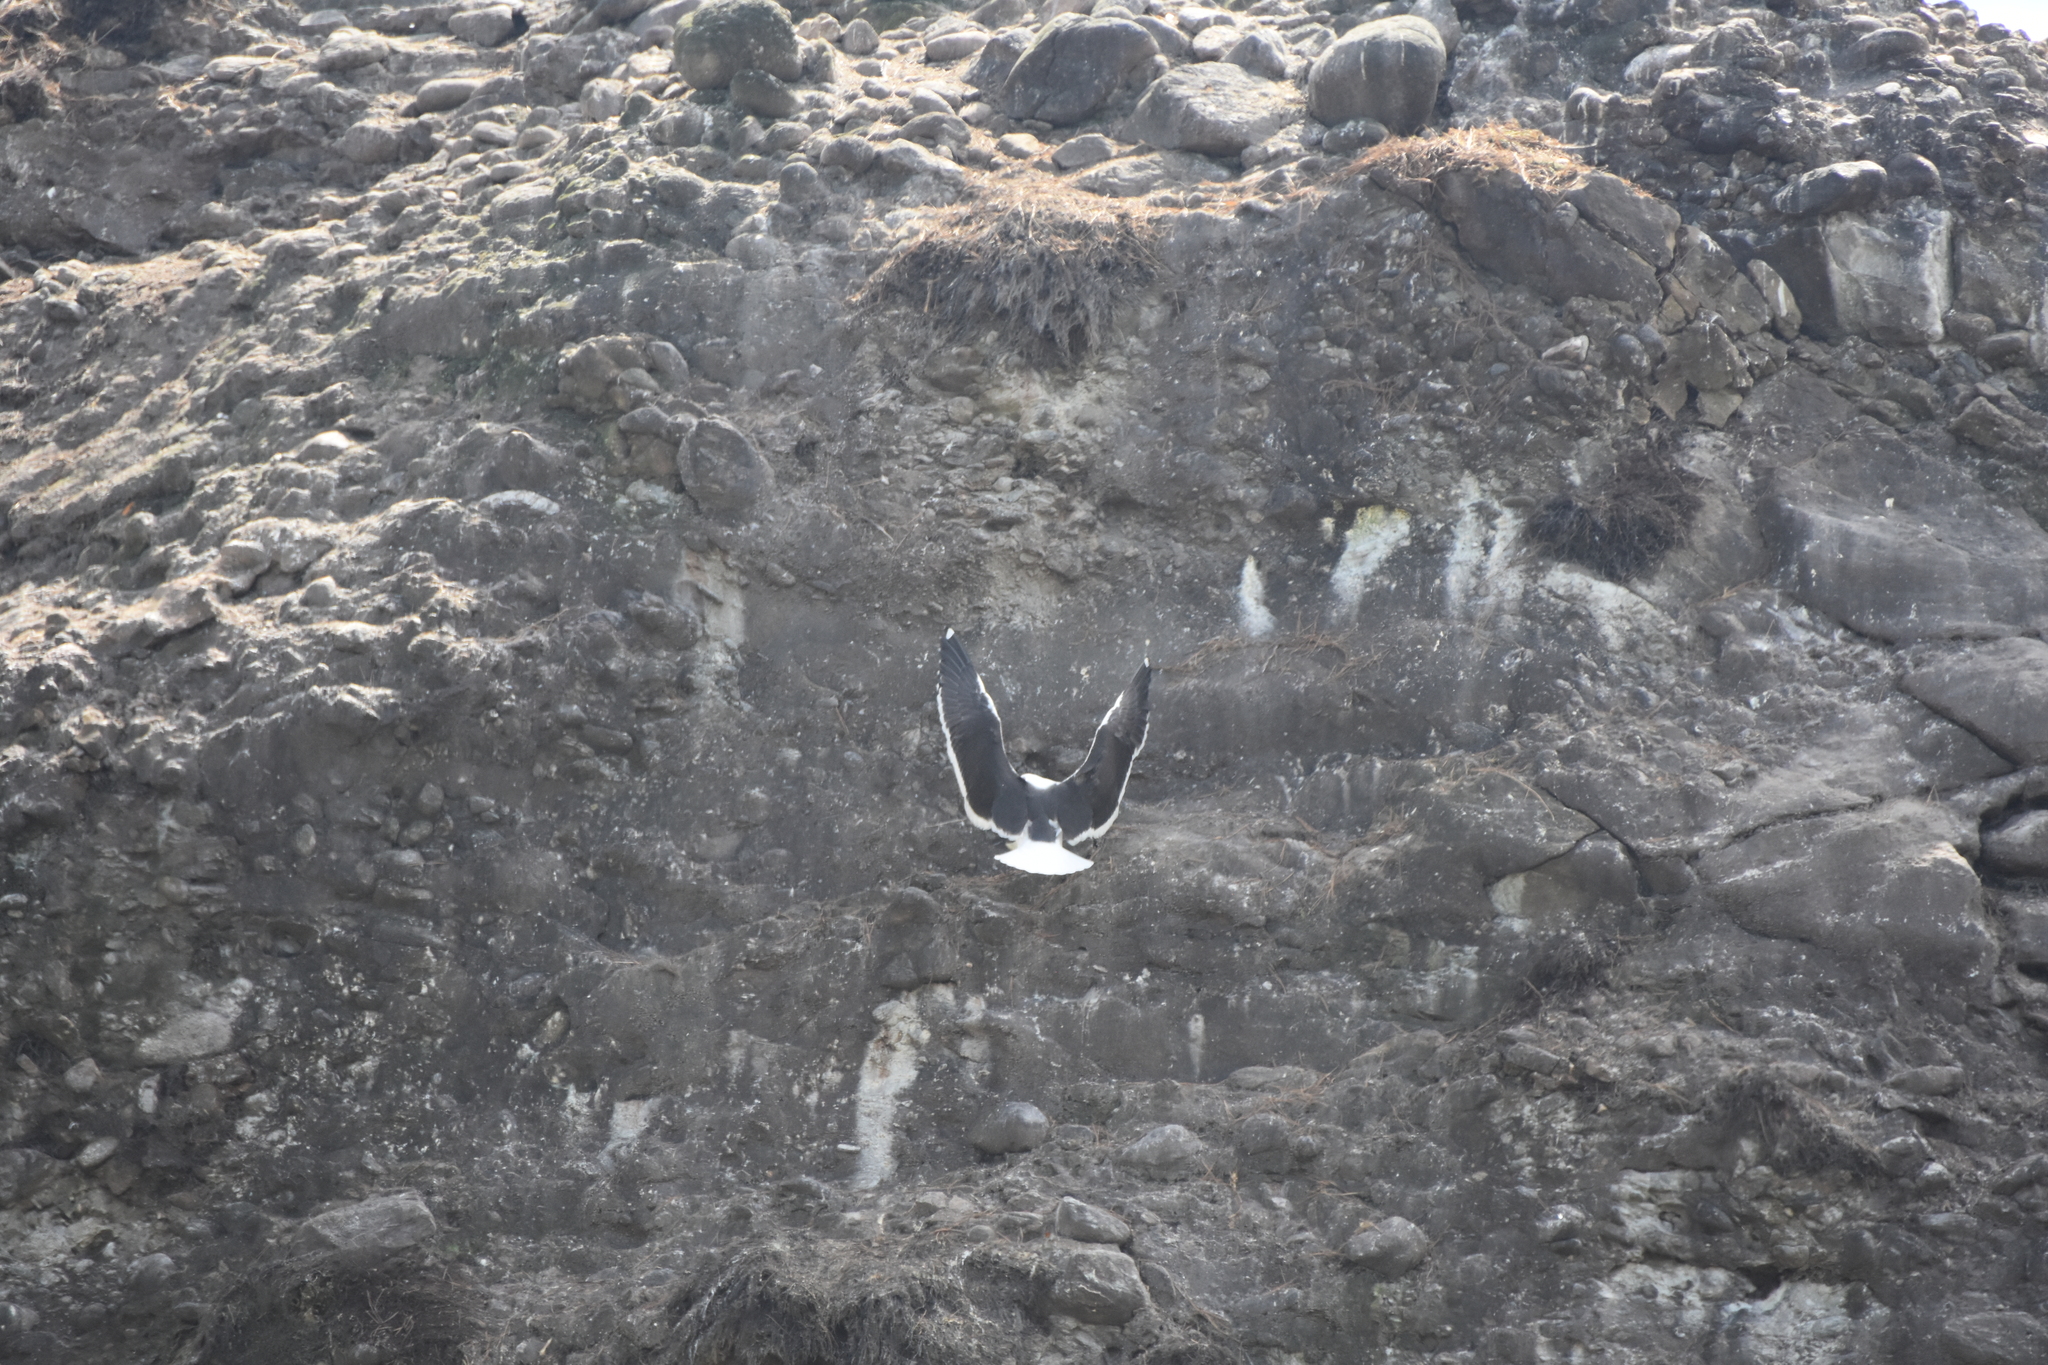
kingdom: Animalia
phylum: Chordata
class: Aves
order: Charadriiformes
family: Laridae
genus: Larus
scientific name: Larus dominicanus
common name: Kelp gull
